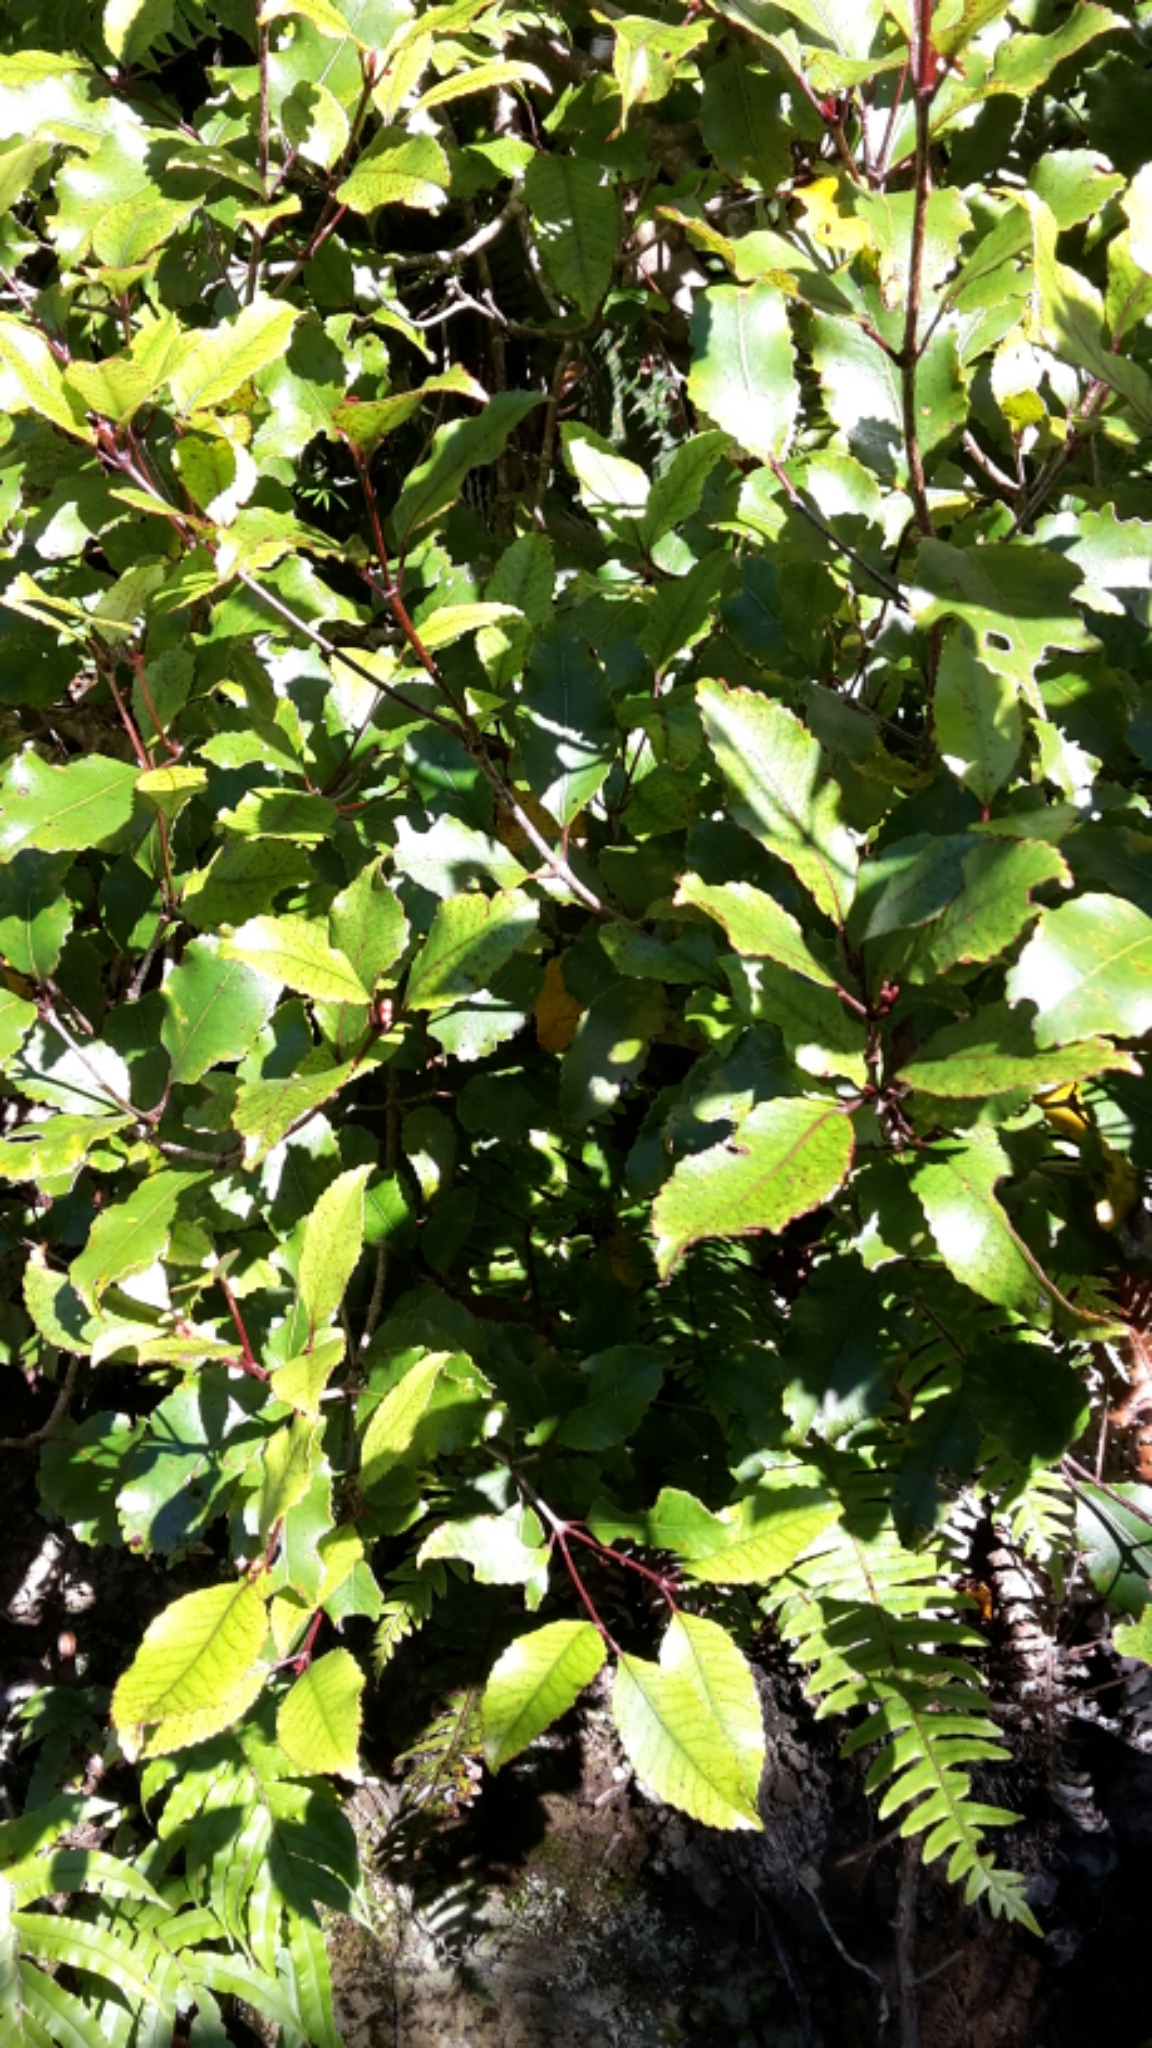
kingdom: Plantae
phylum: Tracheophyta
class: Magnoliopsida
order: Oxalidales
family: Cunoniaceae
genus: Pterophylla
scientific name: Pterophylla racemosa
